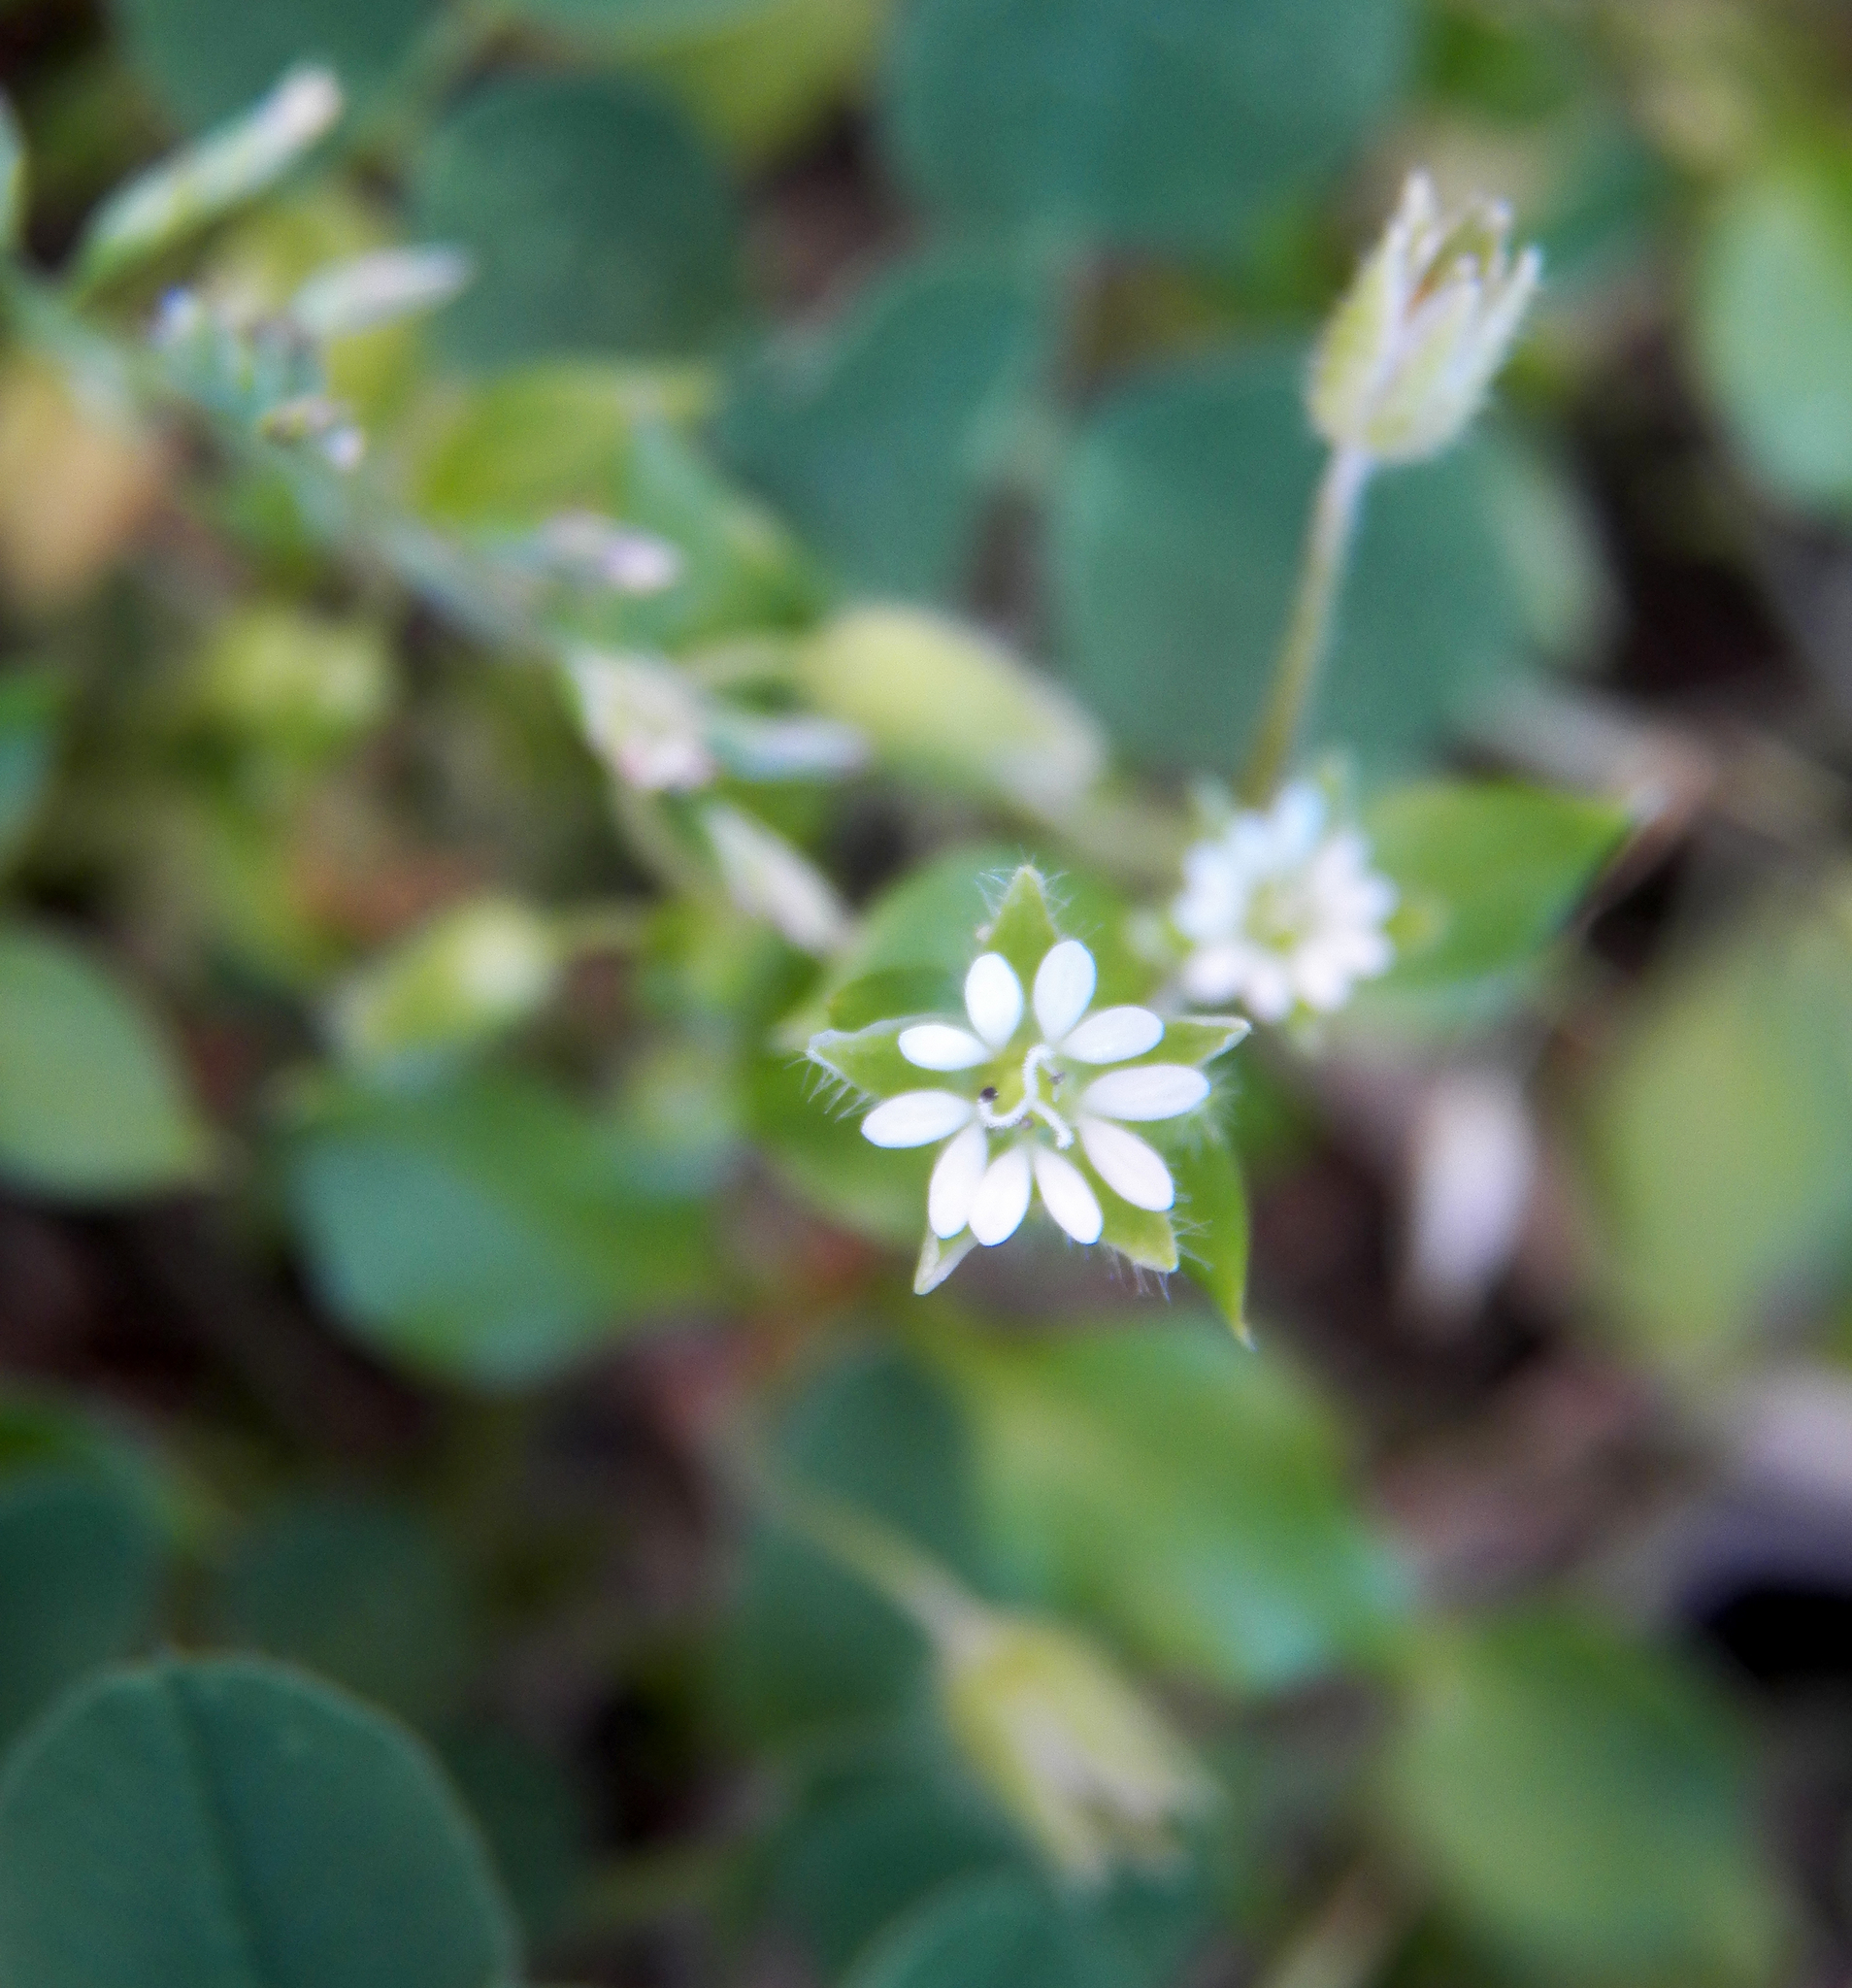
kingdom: Plantae
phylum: Tracheophyta
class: Magnoliopsida
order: Caryophyllales
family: Caryophyllaceae
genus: Stellaria
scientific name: Stellaria media
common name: Common chickweed
